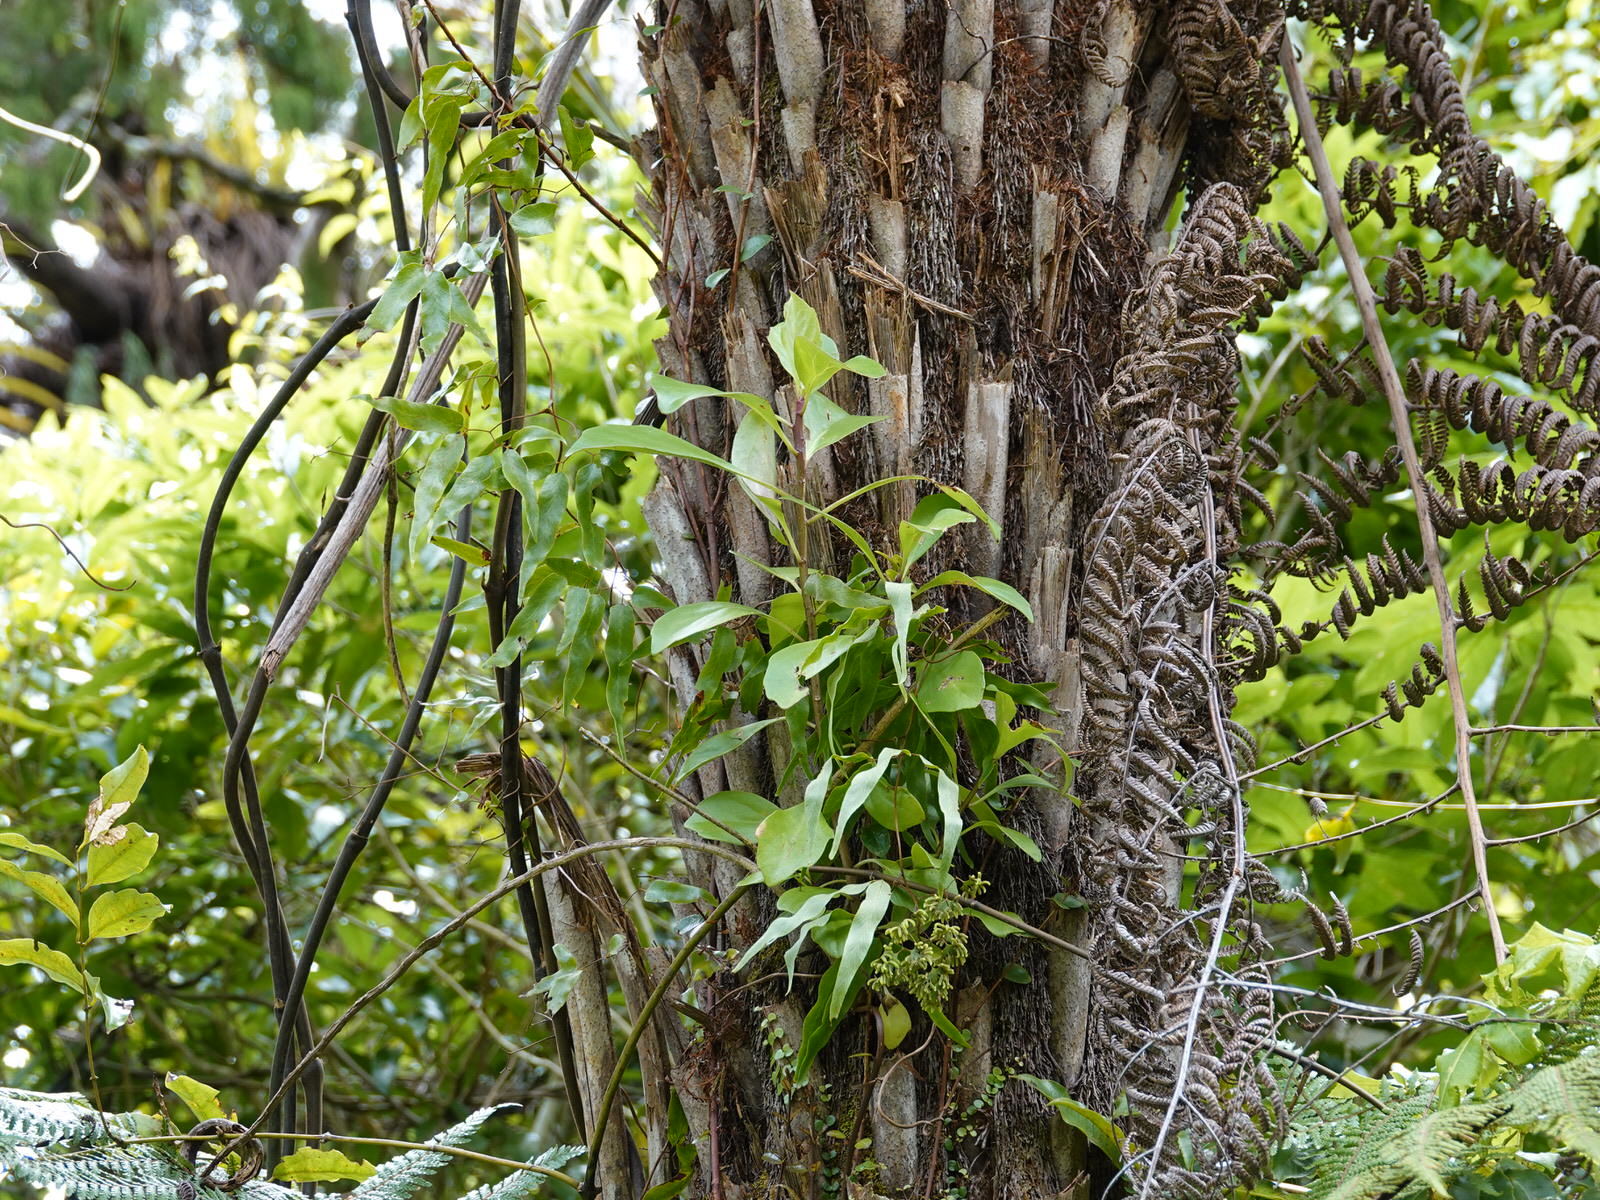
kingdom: Plantae
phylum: Tracheophyta
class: Magnoliopsida
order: Asterales
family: Asteraceae
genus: Brachyglottis
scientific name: Brachyglottis kirkii
